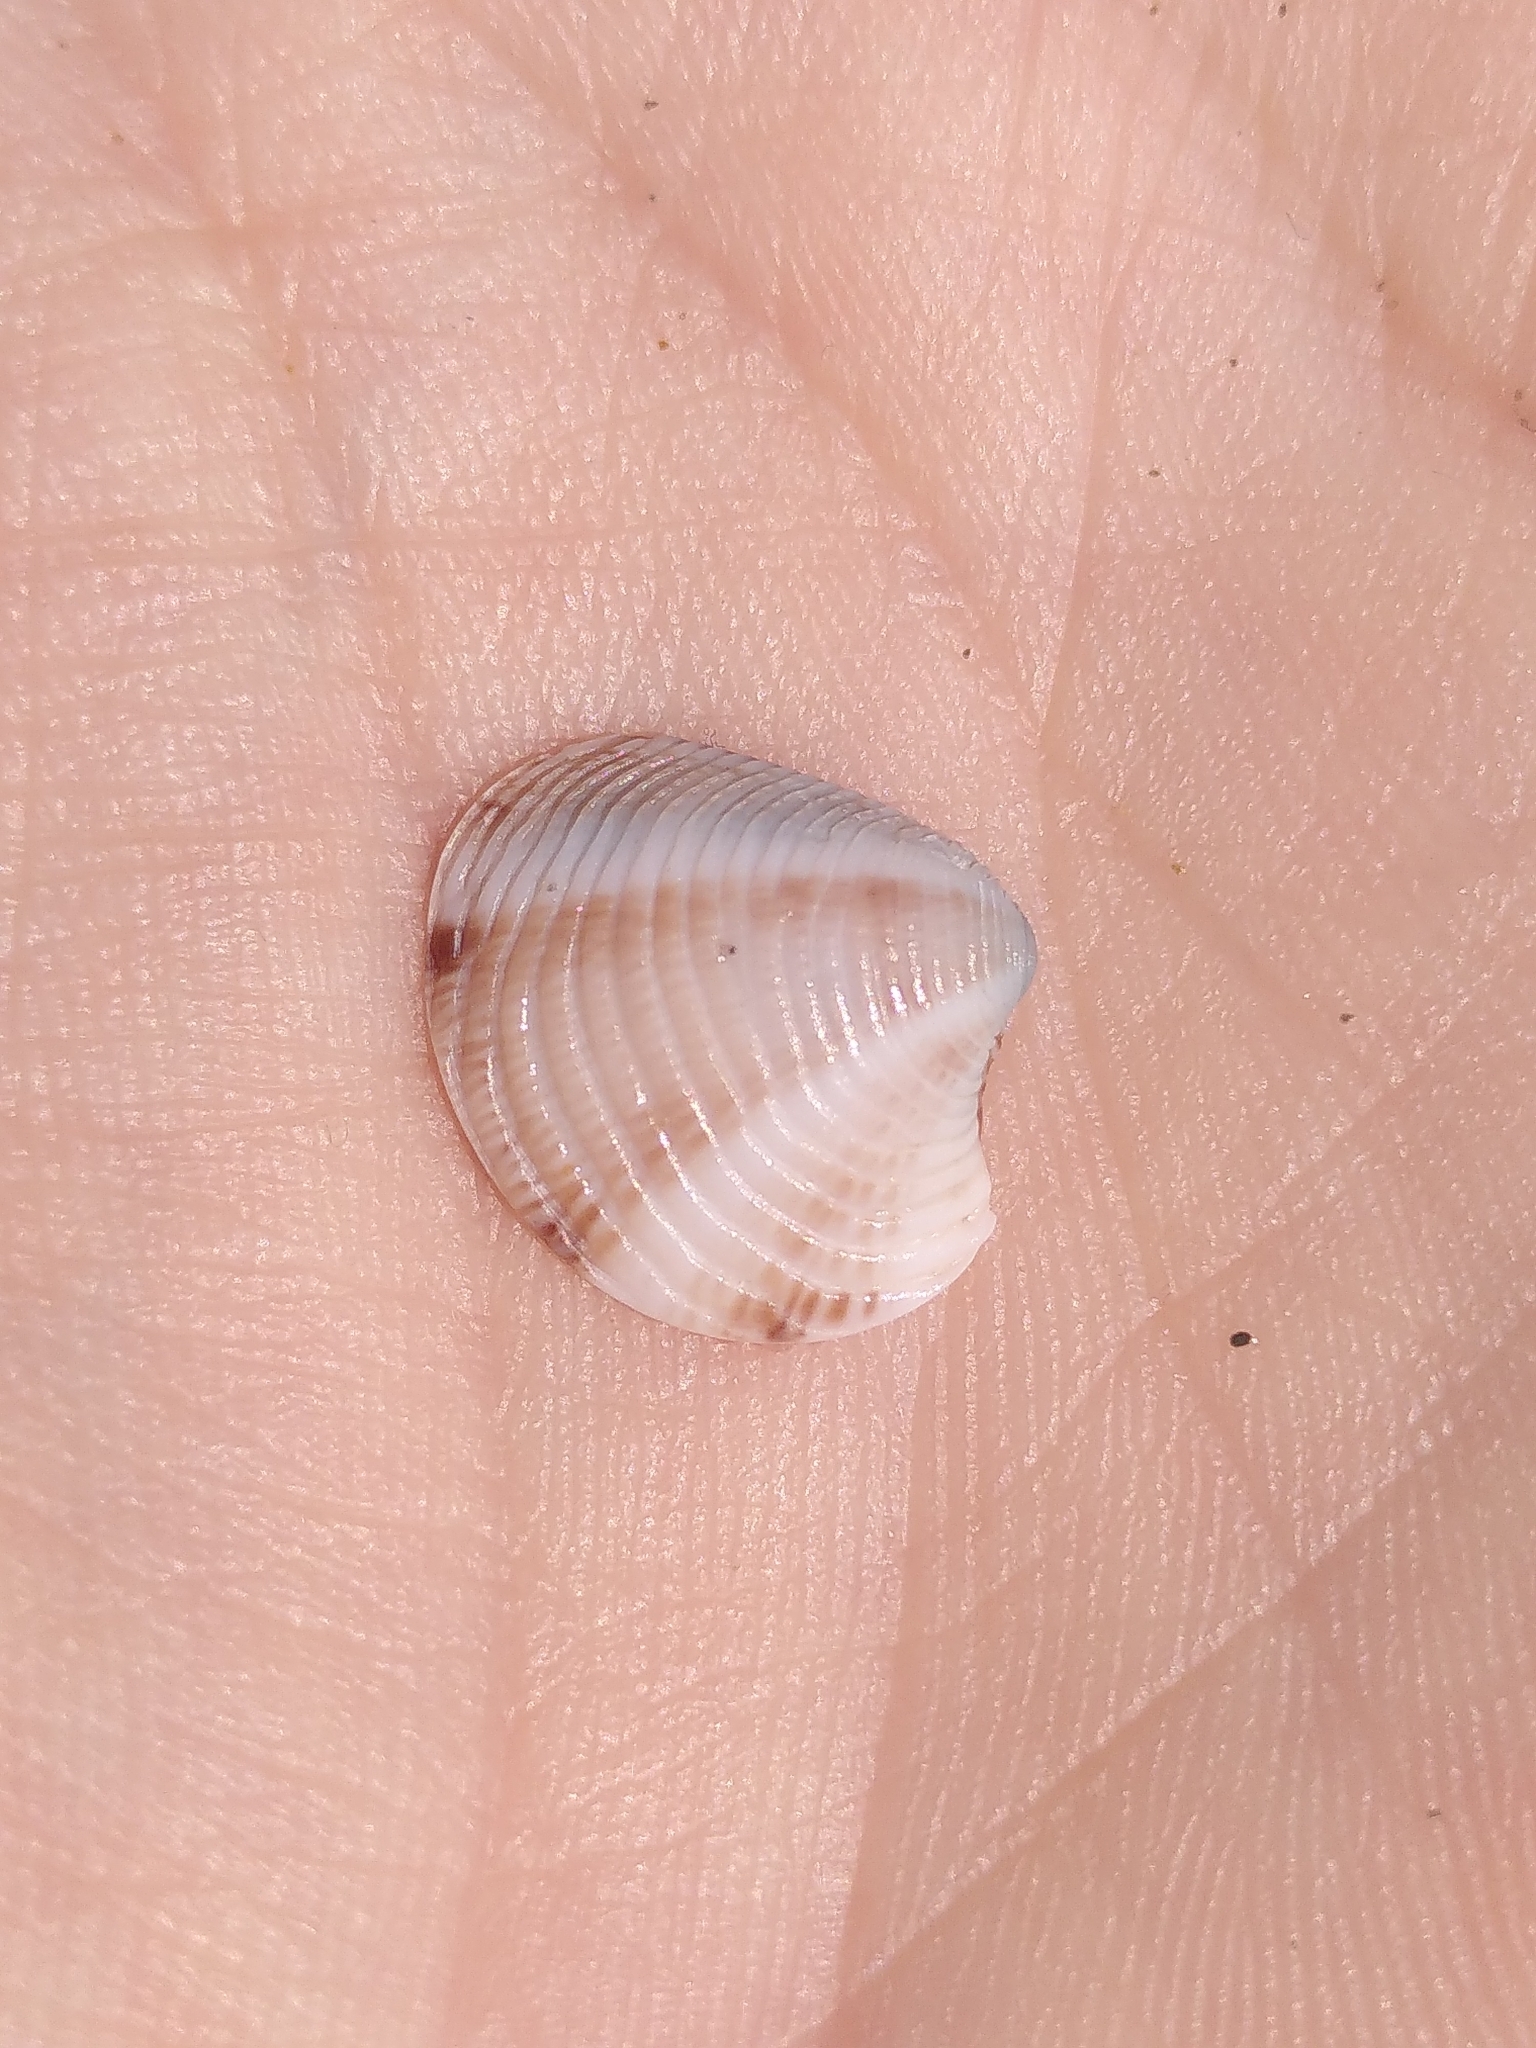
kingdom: Animalia
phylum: Mollusca
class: Bivalvia
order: Venerida
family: Veneridae
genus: Chamelea
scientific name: Chamelea gallina
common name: Chicken venus
